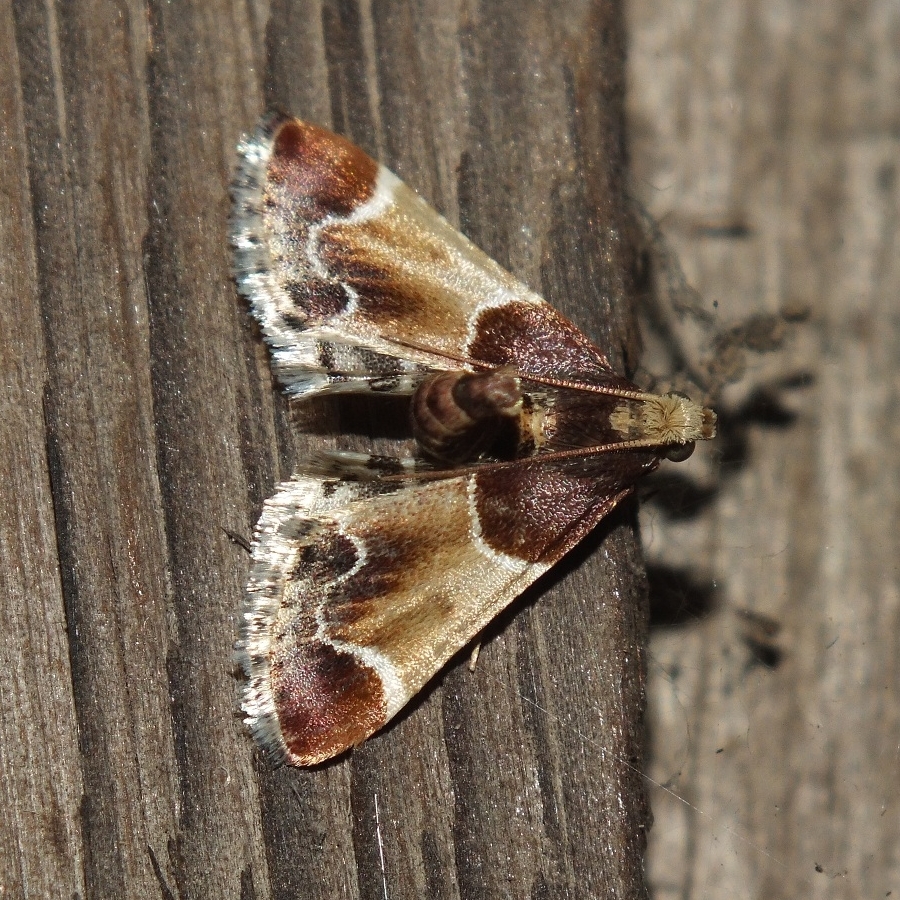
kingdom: Animalia
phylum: Arthropoda
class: Insecta
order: Lepidoptera
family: Pyralidae
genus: Pyralis
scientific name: Pyralis farinalis
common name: Meal moth
